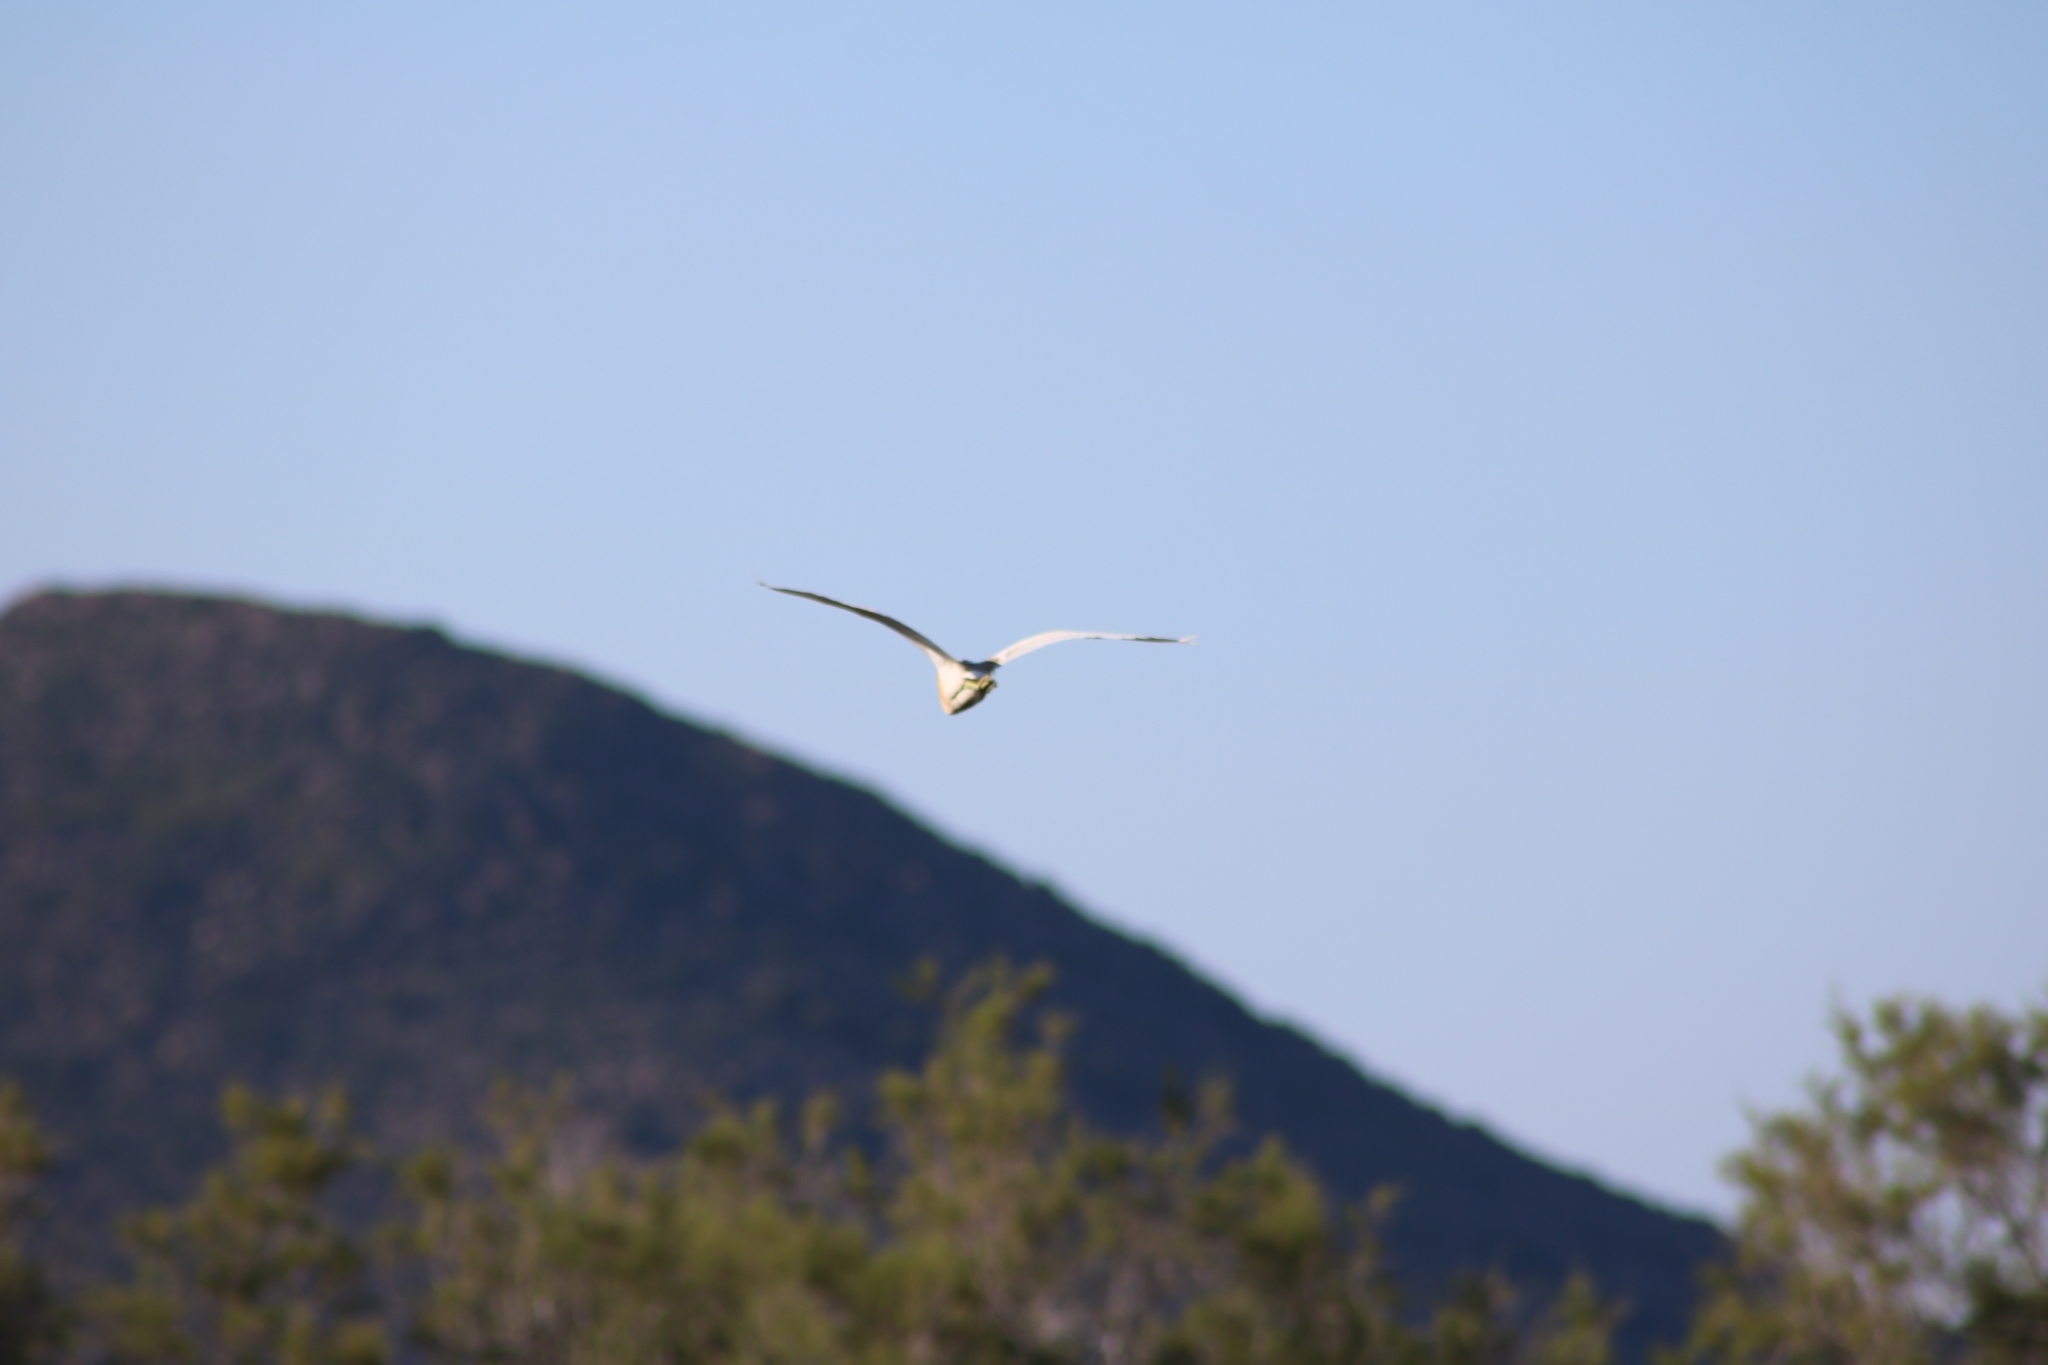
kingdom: Animalia
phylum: Chordata
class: Aves
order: Pelecaniformes
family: Ardeidae
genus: Ardeola
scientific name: Ardeola ralloides
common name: Squacco heron
